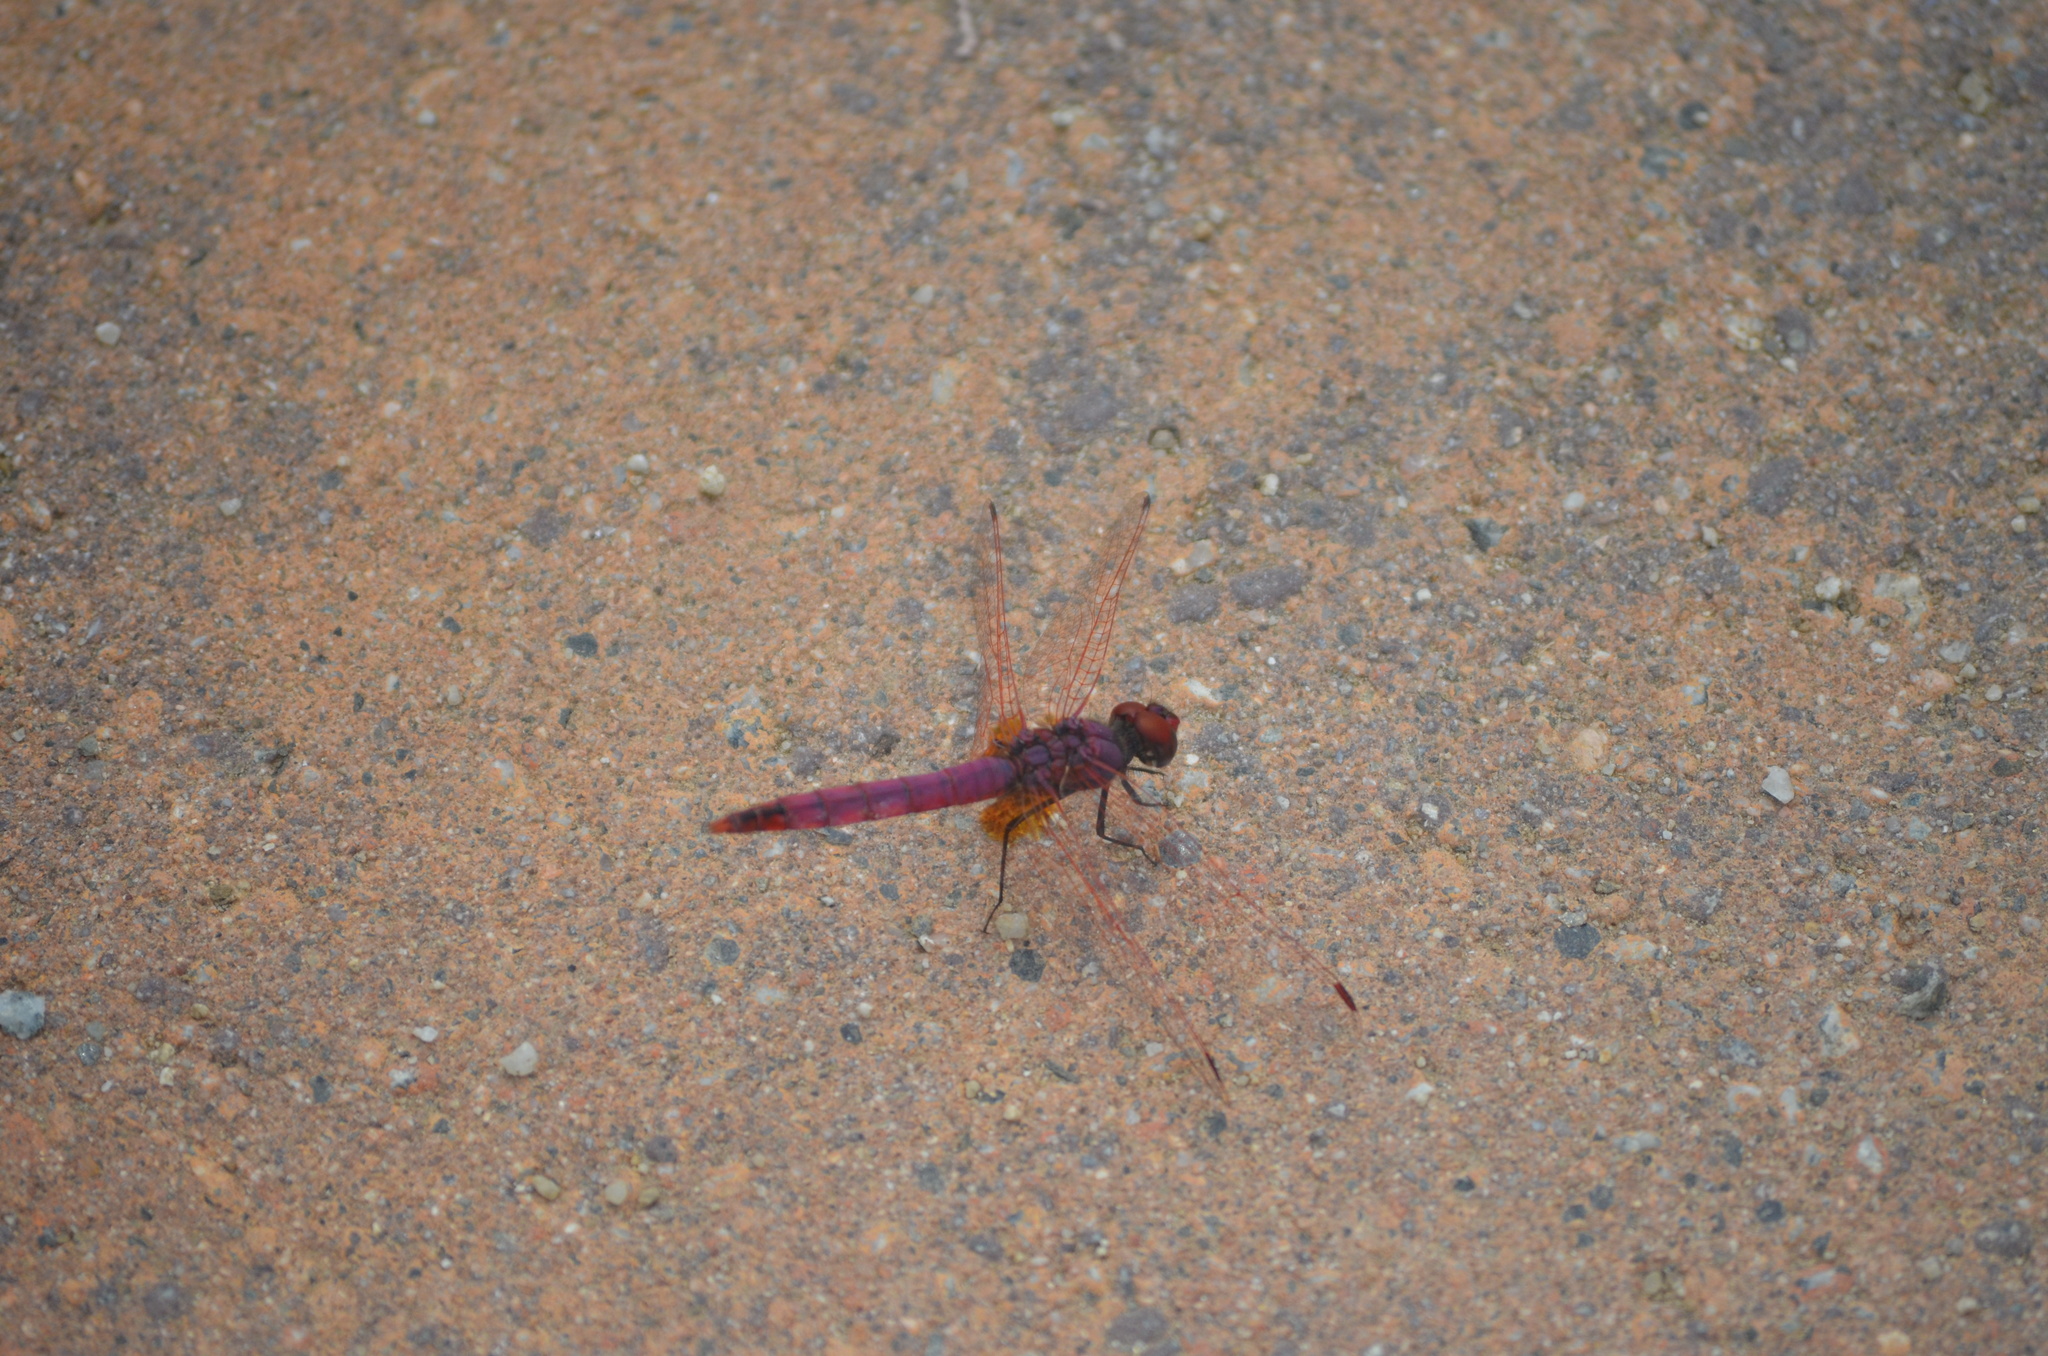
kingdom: Animalia
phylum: Arthropoda
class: Insecta
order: Odonata
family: Libellulidae
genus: Trithemis
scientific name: Trithemis annulata
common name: Violet dropwing
